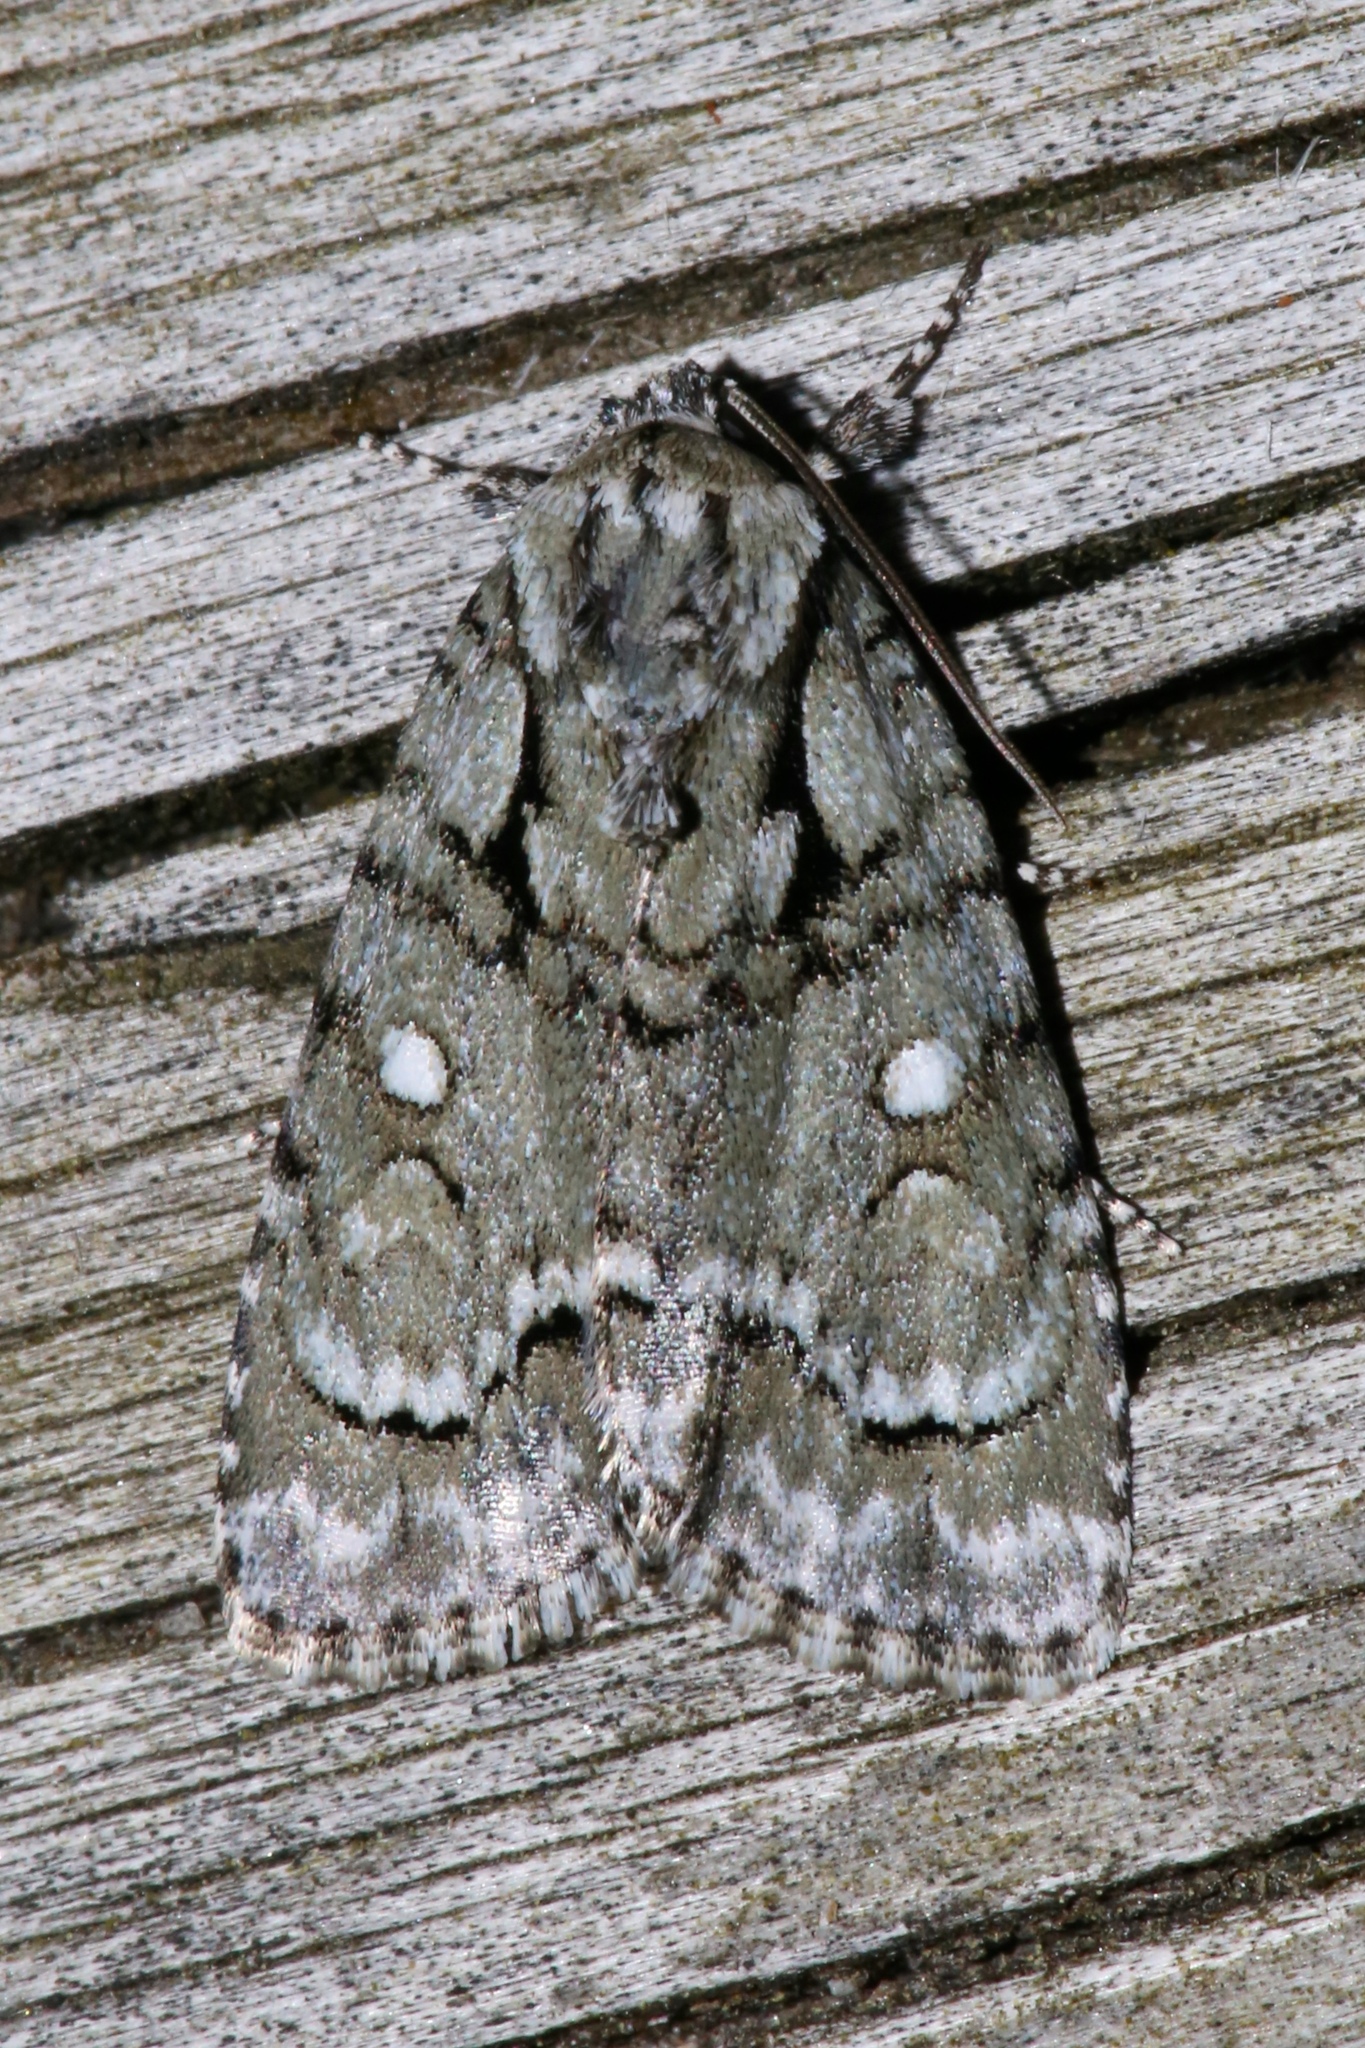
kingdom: Animalia
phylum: Arthropoda
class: Insecta
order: Lepidoptera
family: Noctuidae
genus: Acronicta
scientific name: Acronicta vinnula
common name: Delightful dagger
